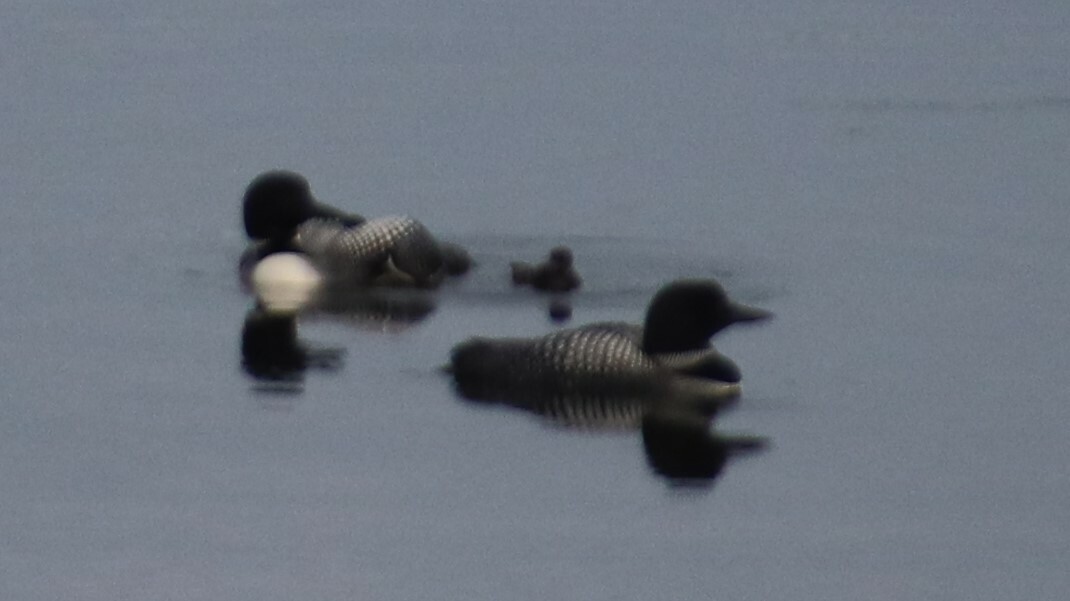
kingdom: Animalia
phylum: Chordata
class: Aves
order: Gaviiformes
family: Gaviidae
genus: Gavia
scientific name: Gavia immer
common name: Common loon
